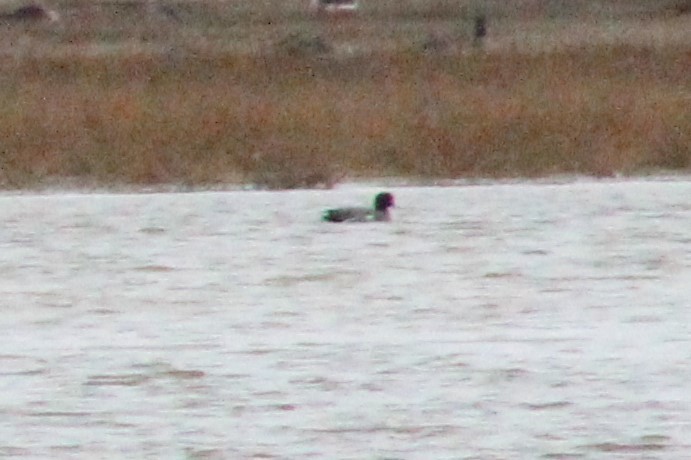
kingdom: Animalia
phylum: Chordata
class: Aves
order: Anseriformes
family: Anatidae
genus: Mareca
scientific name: Mareca penelope
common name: Eurasian wigeon
